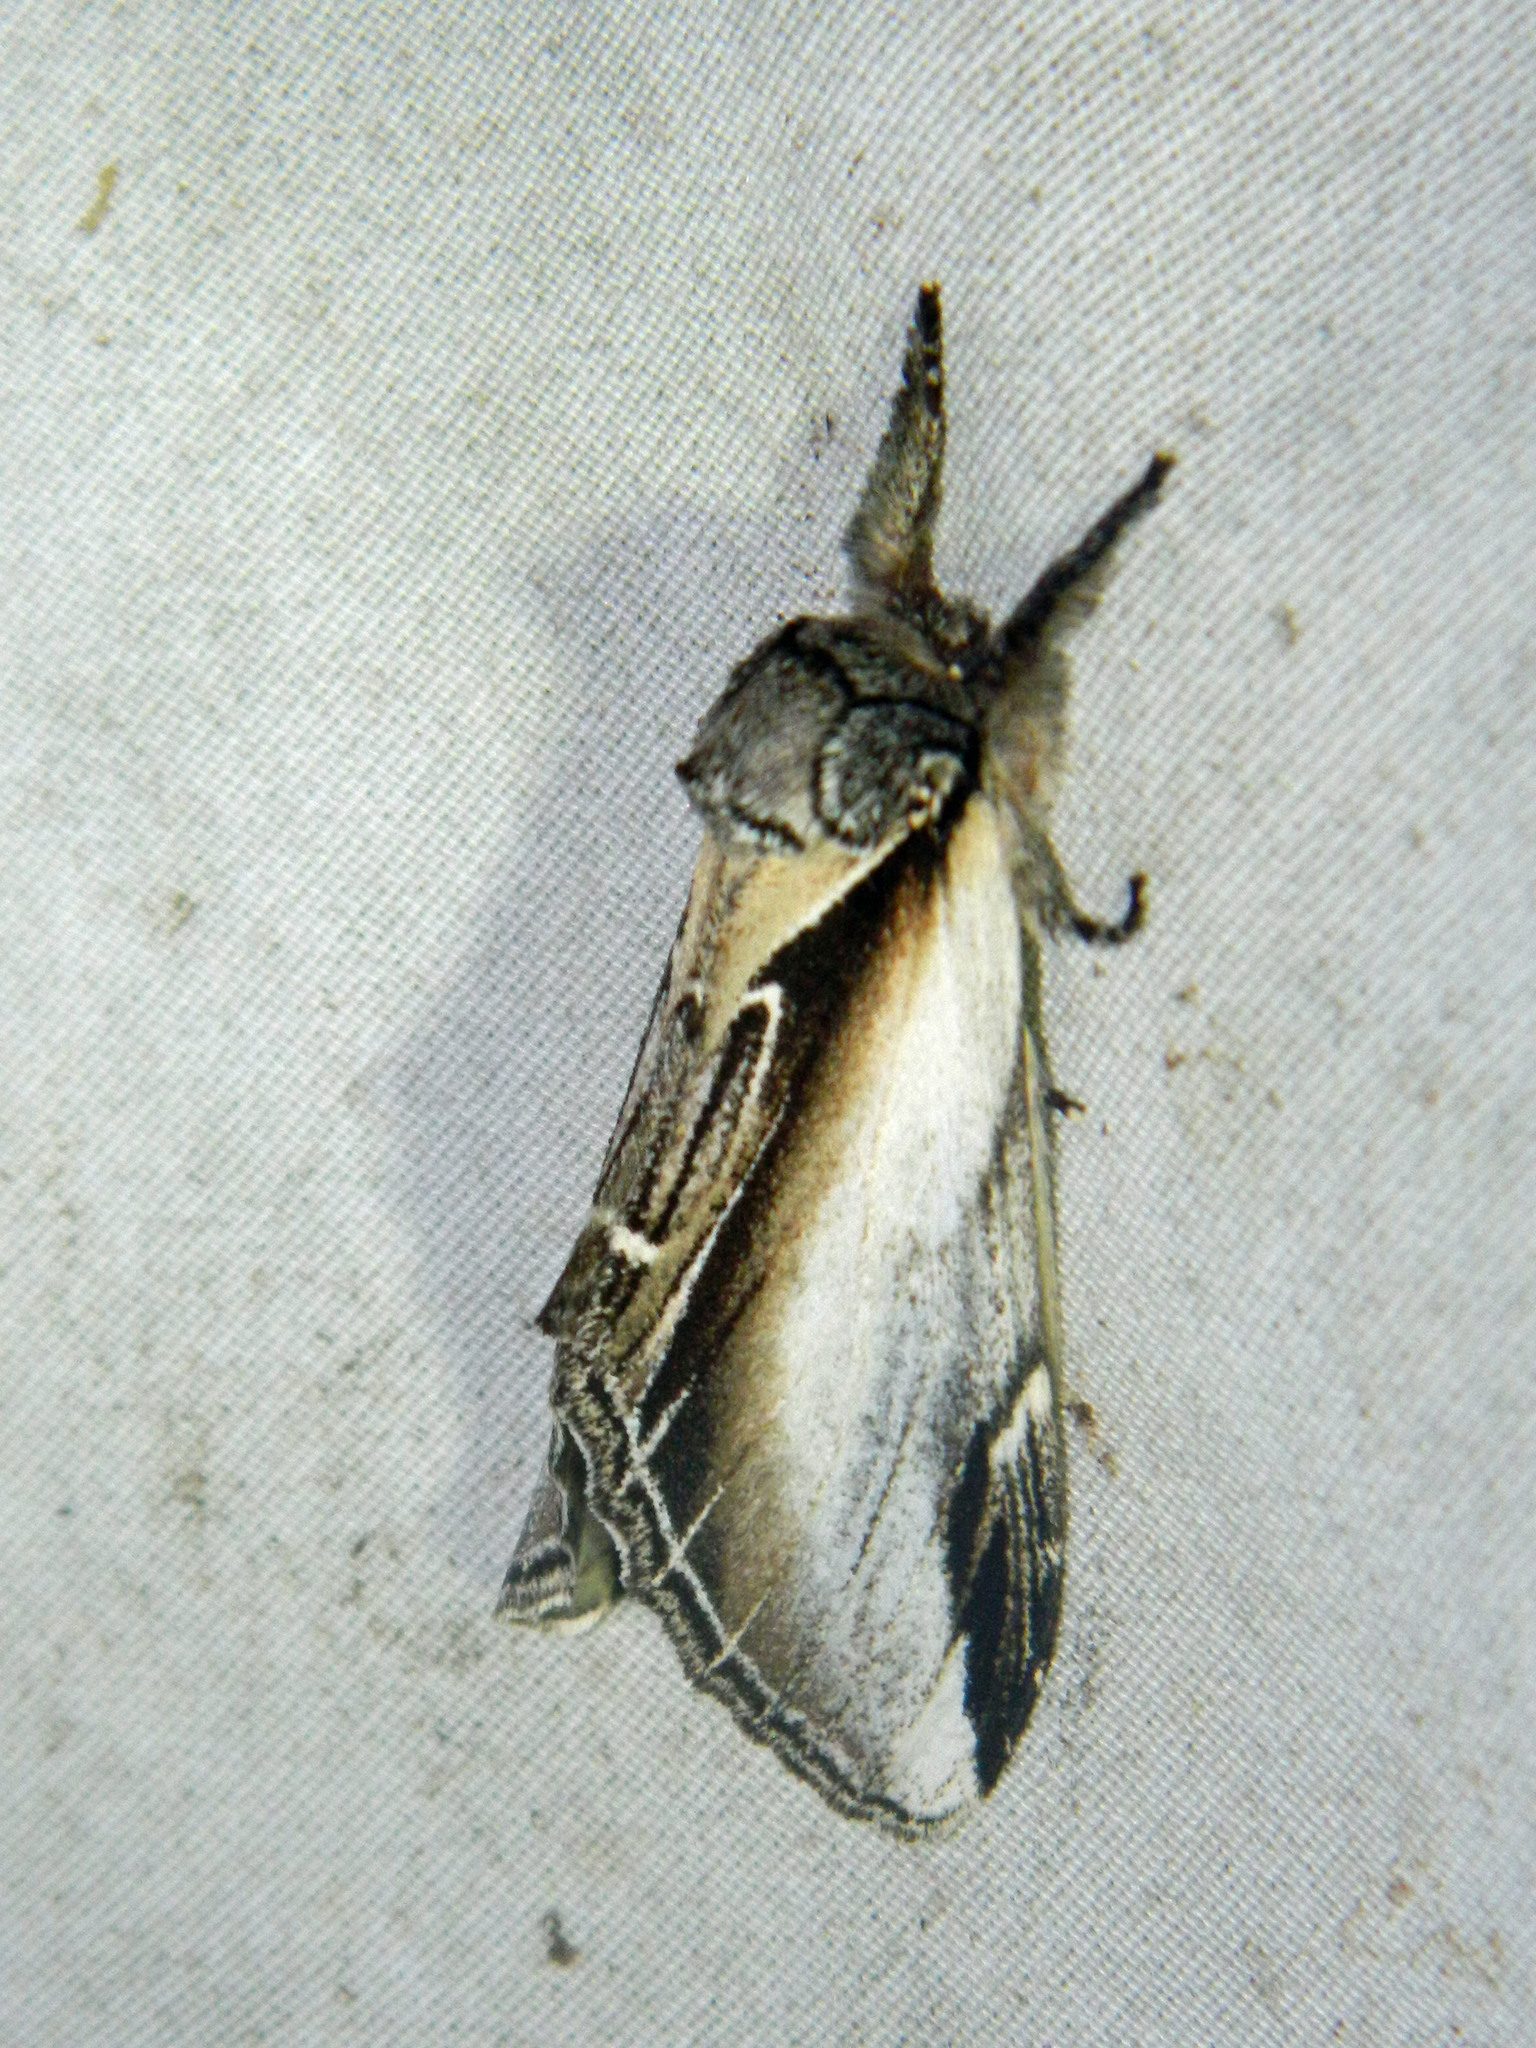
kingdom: Animalia
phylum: Arthropoda
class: Insecta
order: Lepidoptera
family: Notodontidae
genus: Pheosia
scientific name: Pheosia rimosa
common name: Black-rimmed prominent
